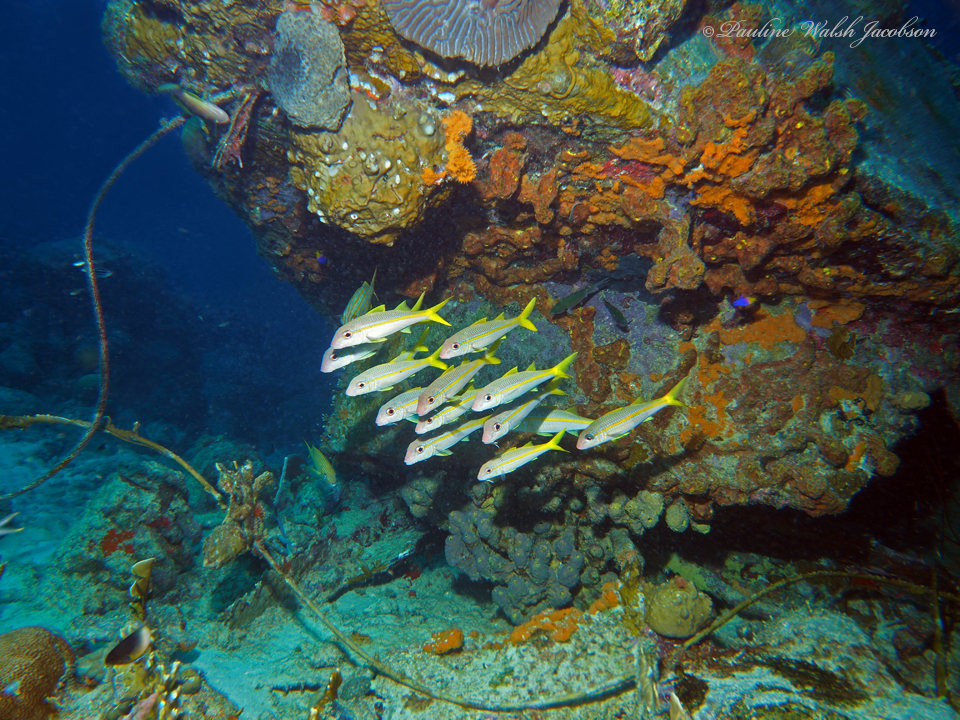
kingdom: Animalia
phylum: Chordata
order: Perciformes
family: Mullidae
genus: Mulloidichthys
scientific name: Mulloidichthys martinicus
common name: Yellow goatfish
